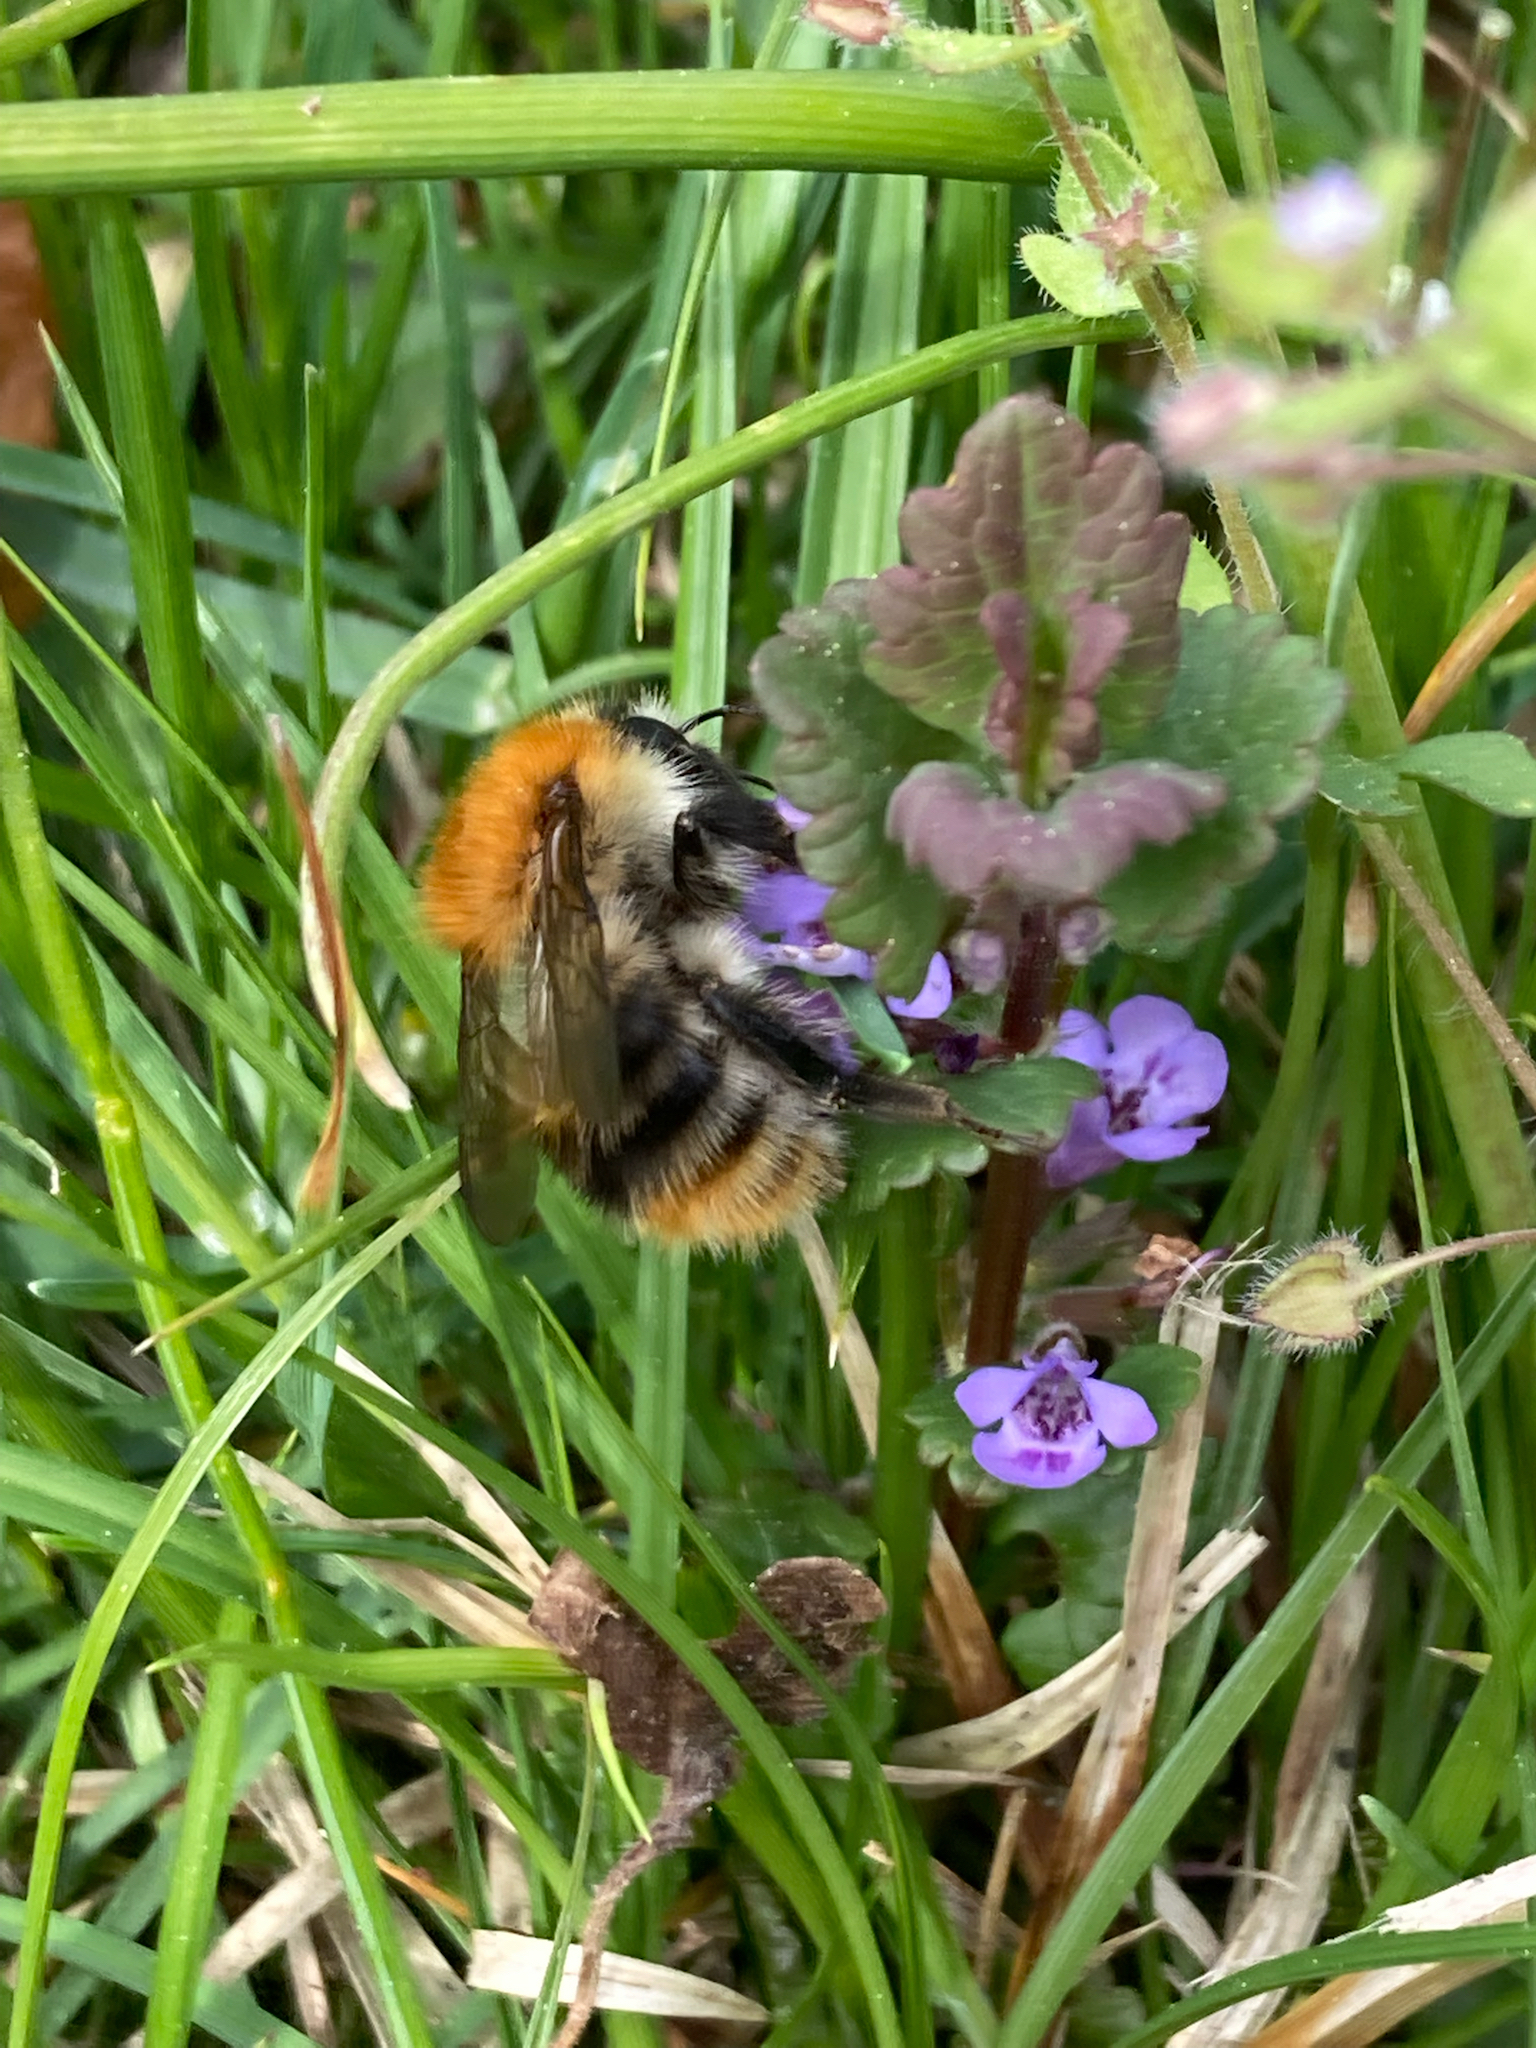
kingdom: Animalia
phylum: Arthropoda
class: Insecta
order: Hymenoptera
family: Apidae
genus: Bombus
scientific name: Bombus pascuorum
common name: Common carder bee
